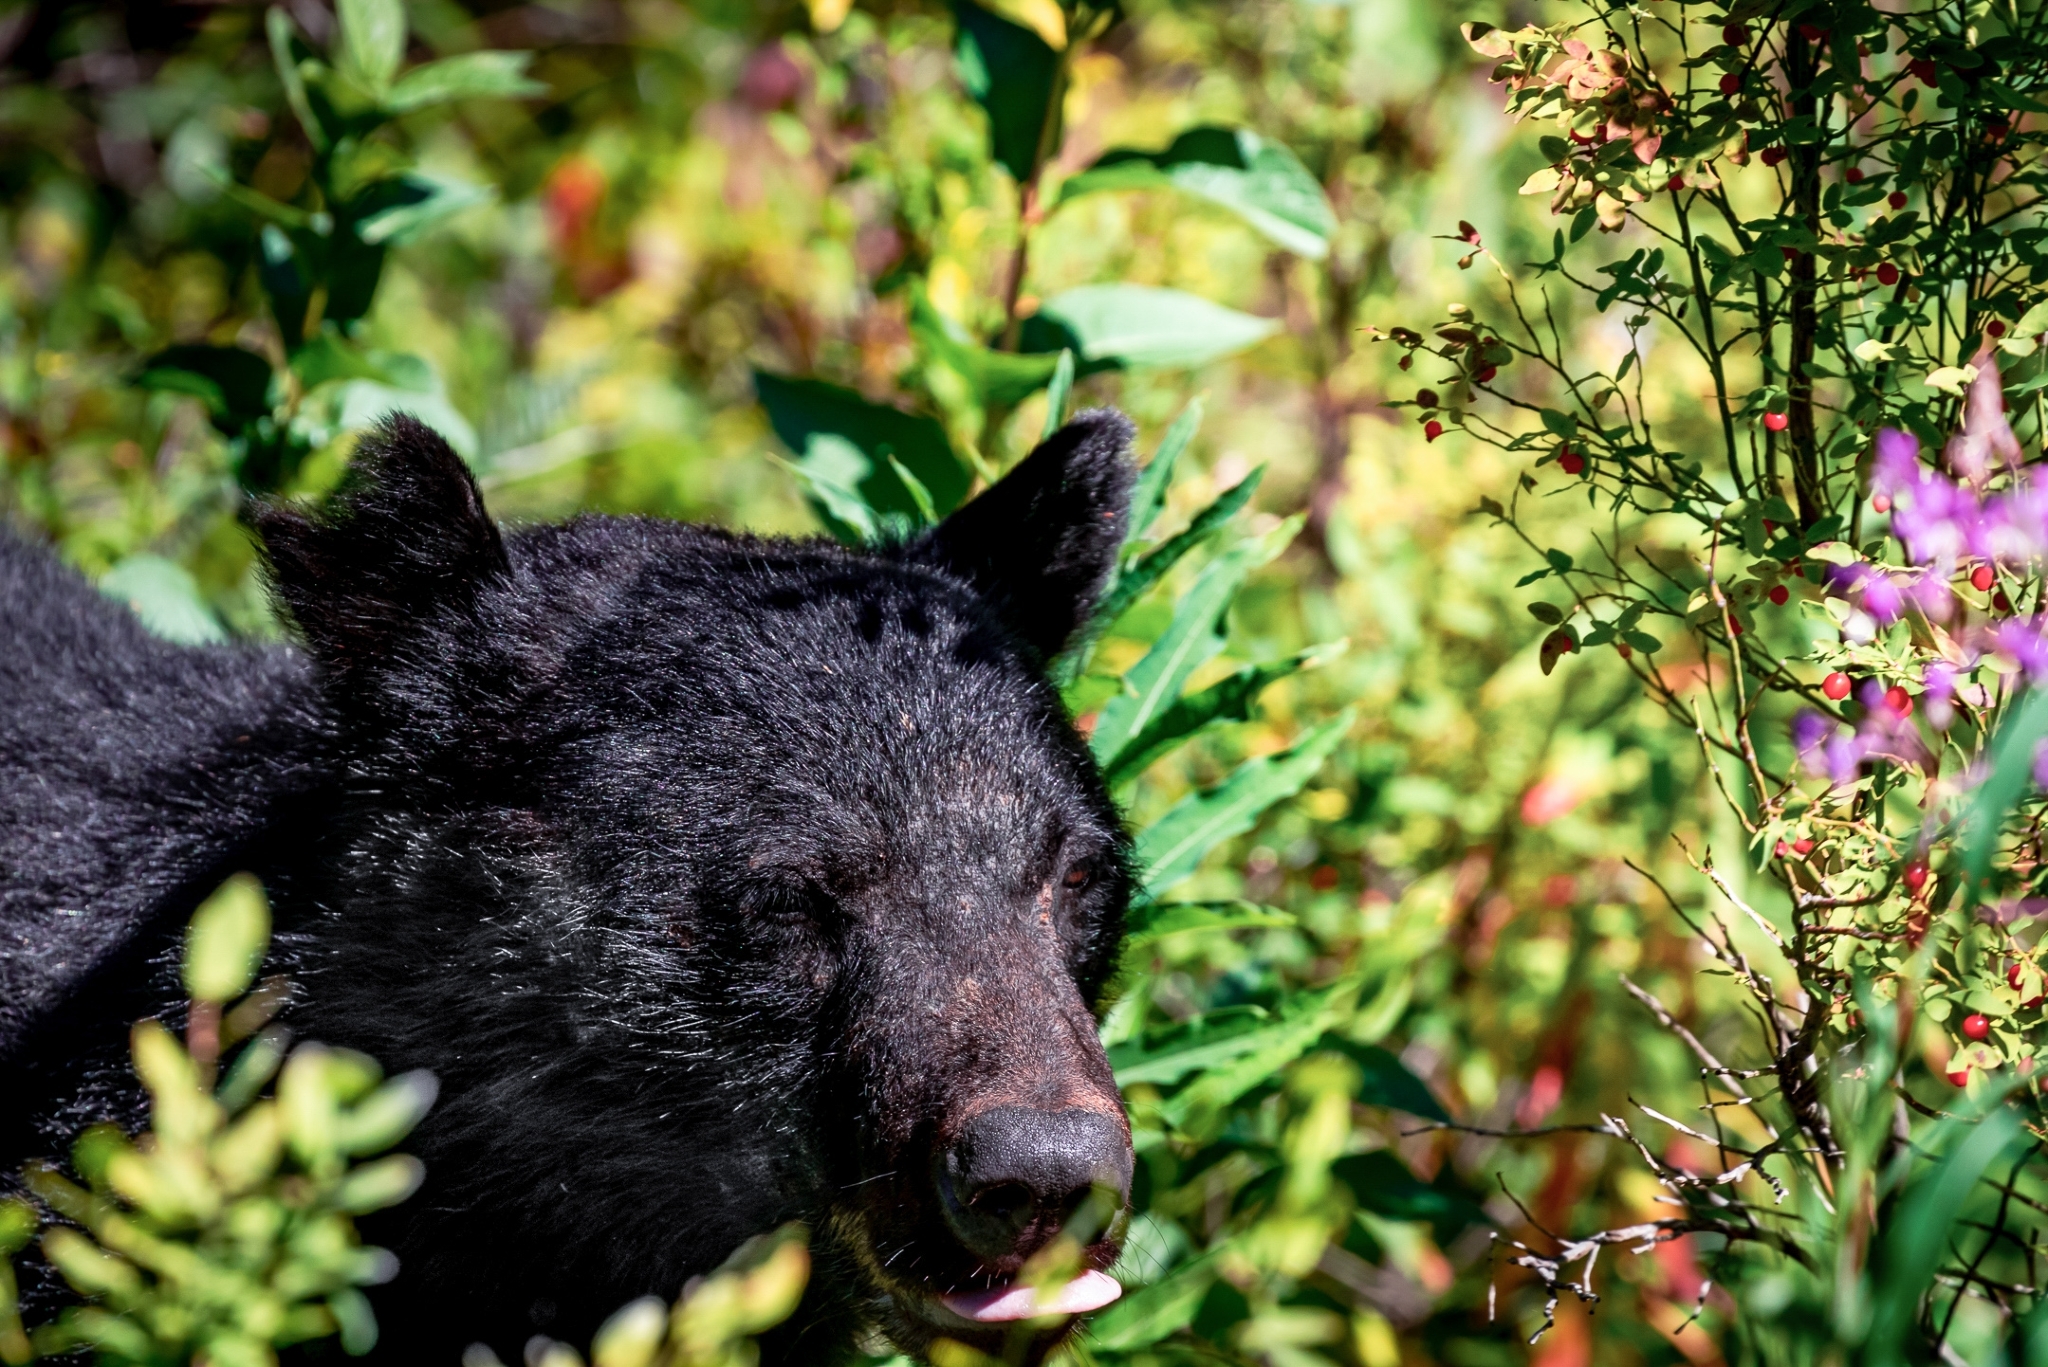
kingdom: Animalia
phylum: Chordata
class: Mammalia
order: Carnivora
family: Ursidae
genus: Ursus
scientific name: Ursus americanus
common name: American black bear
